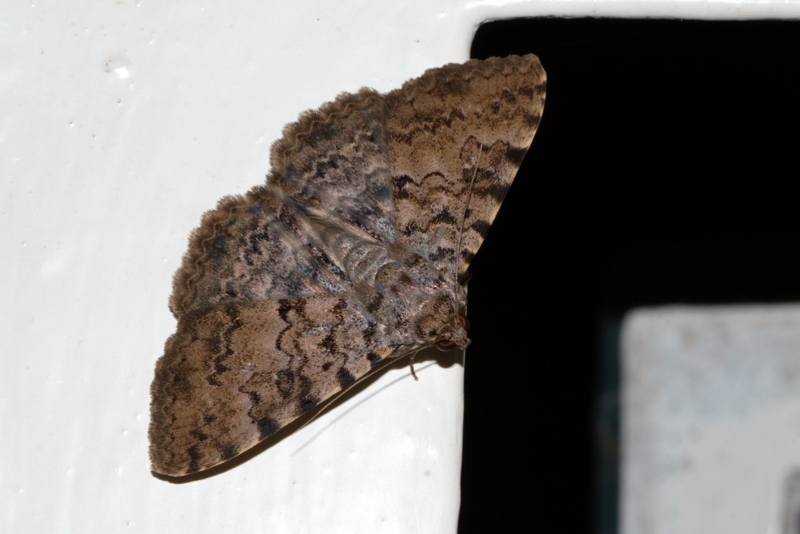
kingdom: Animalia
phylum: Arthropoda
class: Insecta
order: Lepidoptera
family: Erebidae
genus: Polydesma
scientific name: Polydesma umbricola
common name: Monkeypod moth
